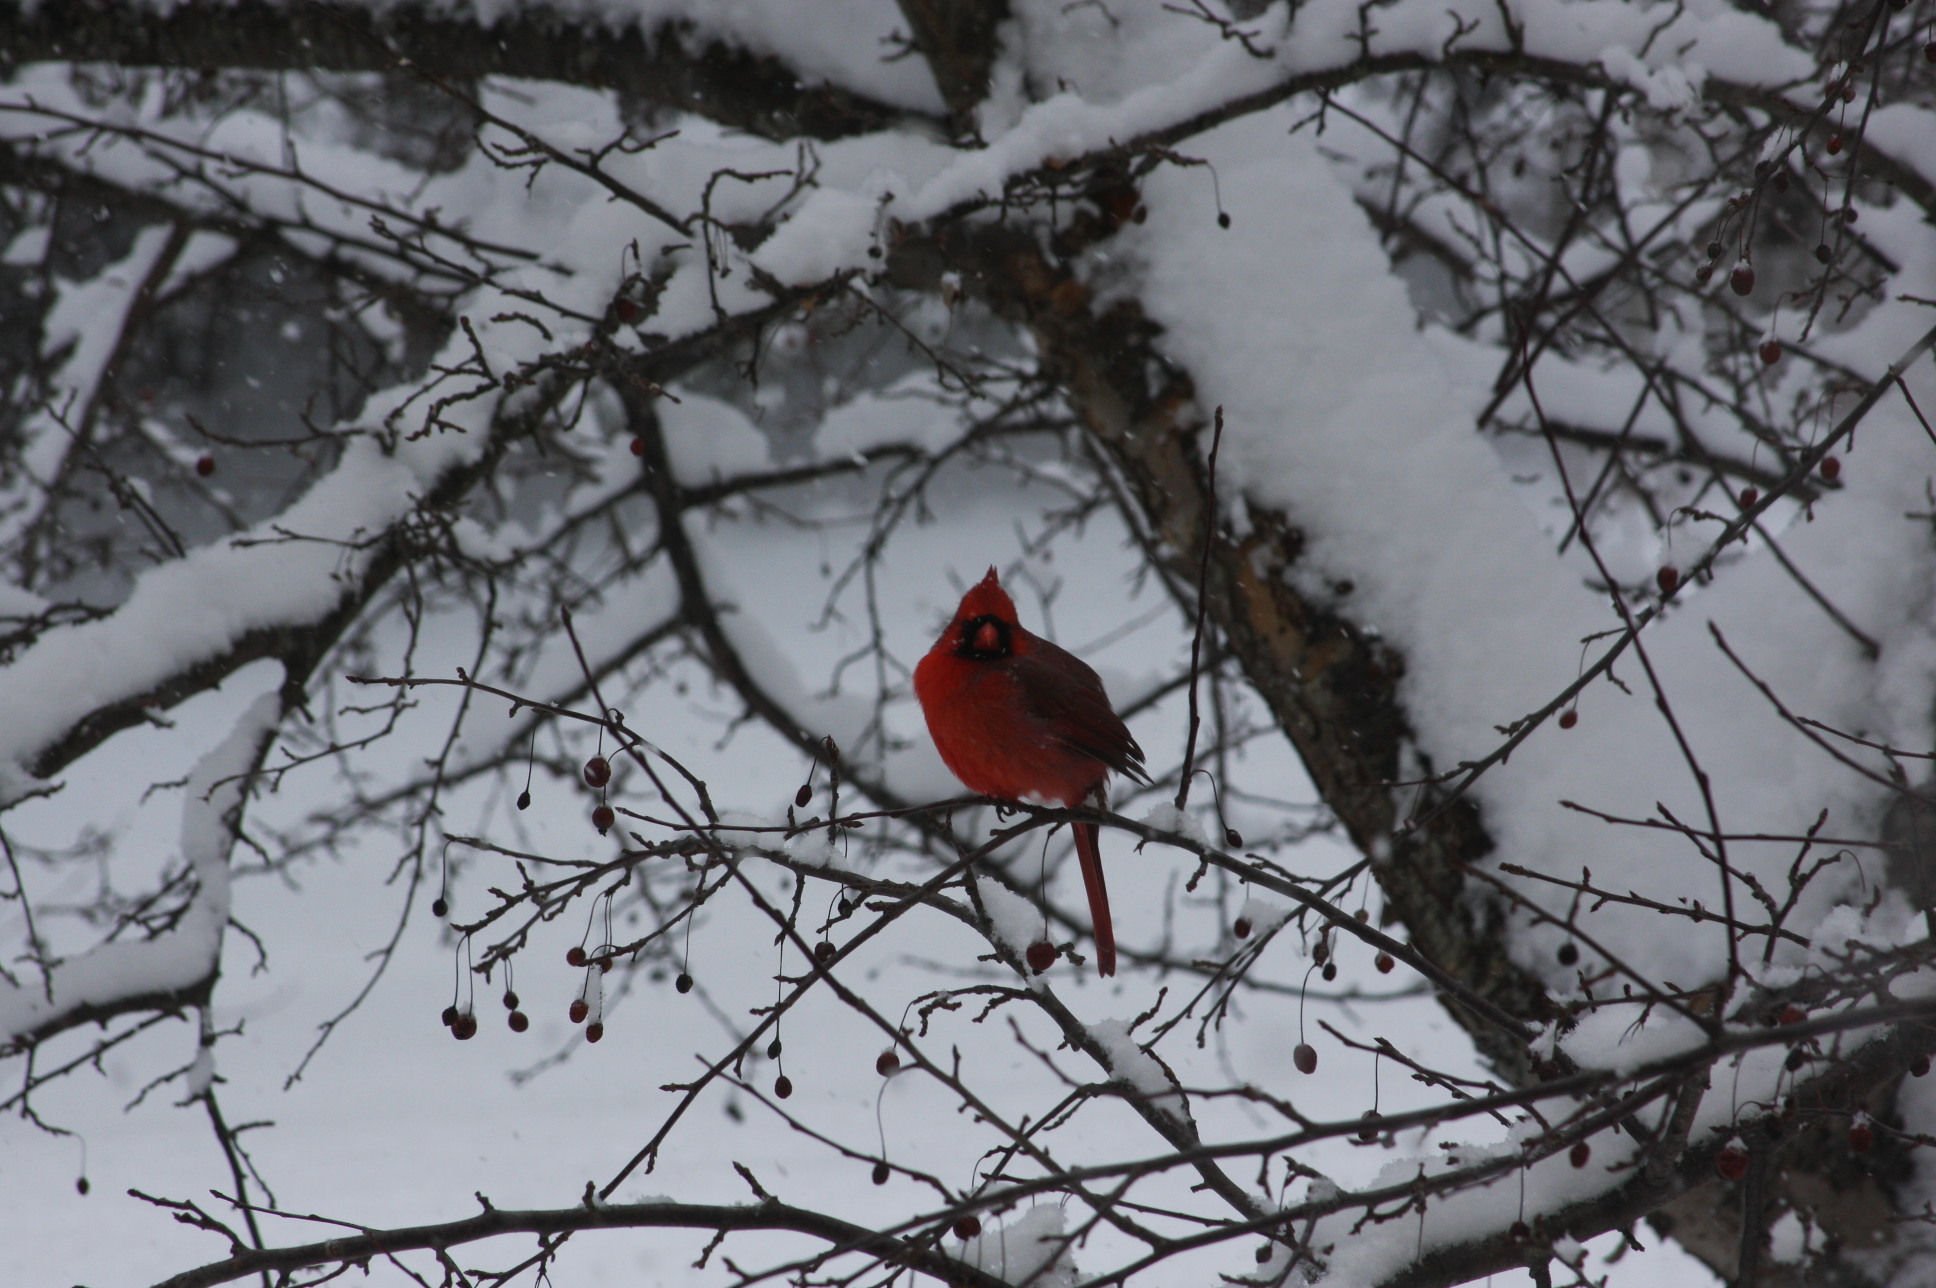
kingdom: Animalia
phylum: Chordata
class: Aves
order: Passeriformes
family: Cardinalidae
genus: Cardinalis
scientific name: Cardinalis cardinalis
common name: Northern cardinal
